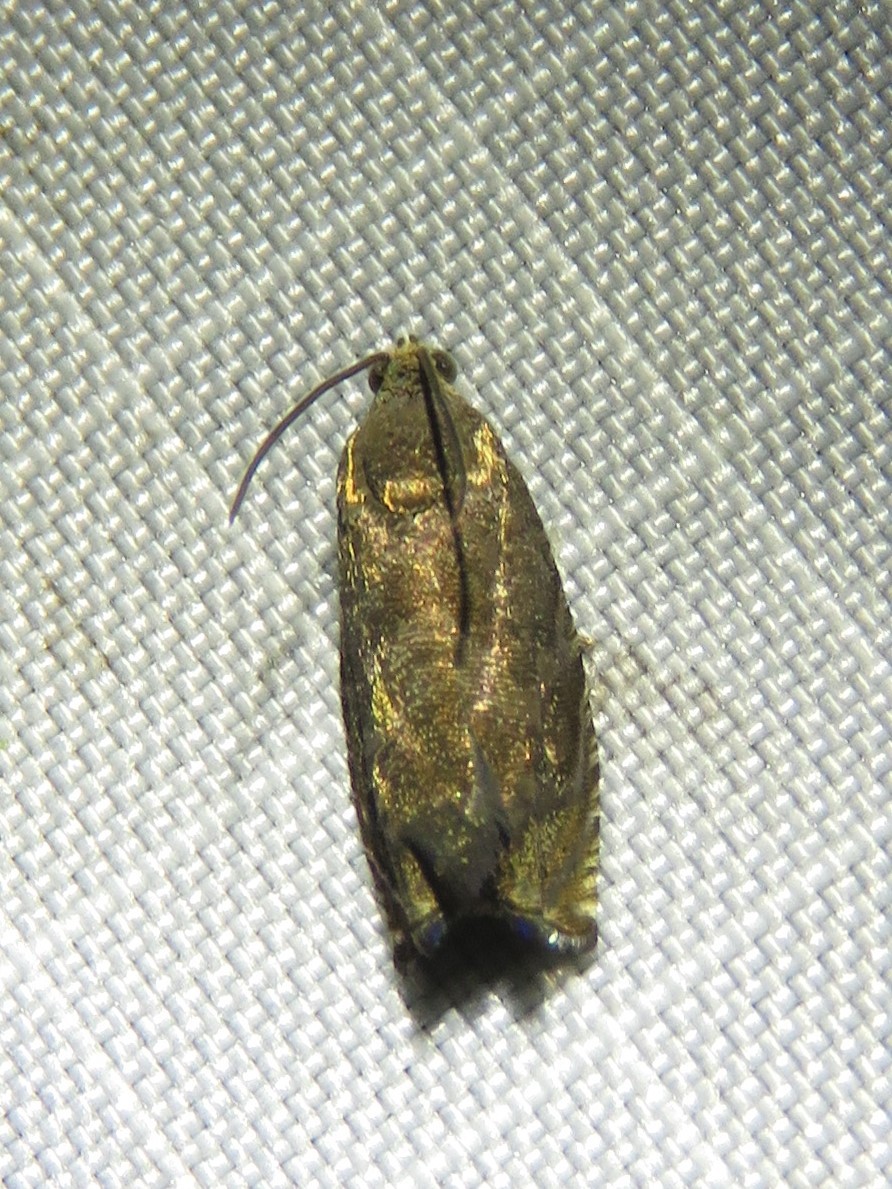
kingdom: Animalia
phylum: Arthropoda
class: Insecta
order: Lepidoptera
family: Tortricidae
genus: Cydia
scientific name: Cydia caryana
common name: Hickory shuckworm moth
